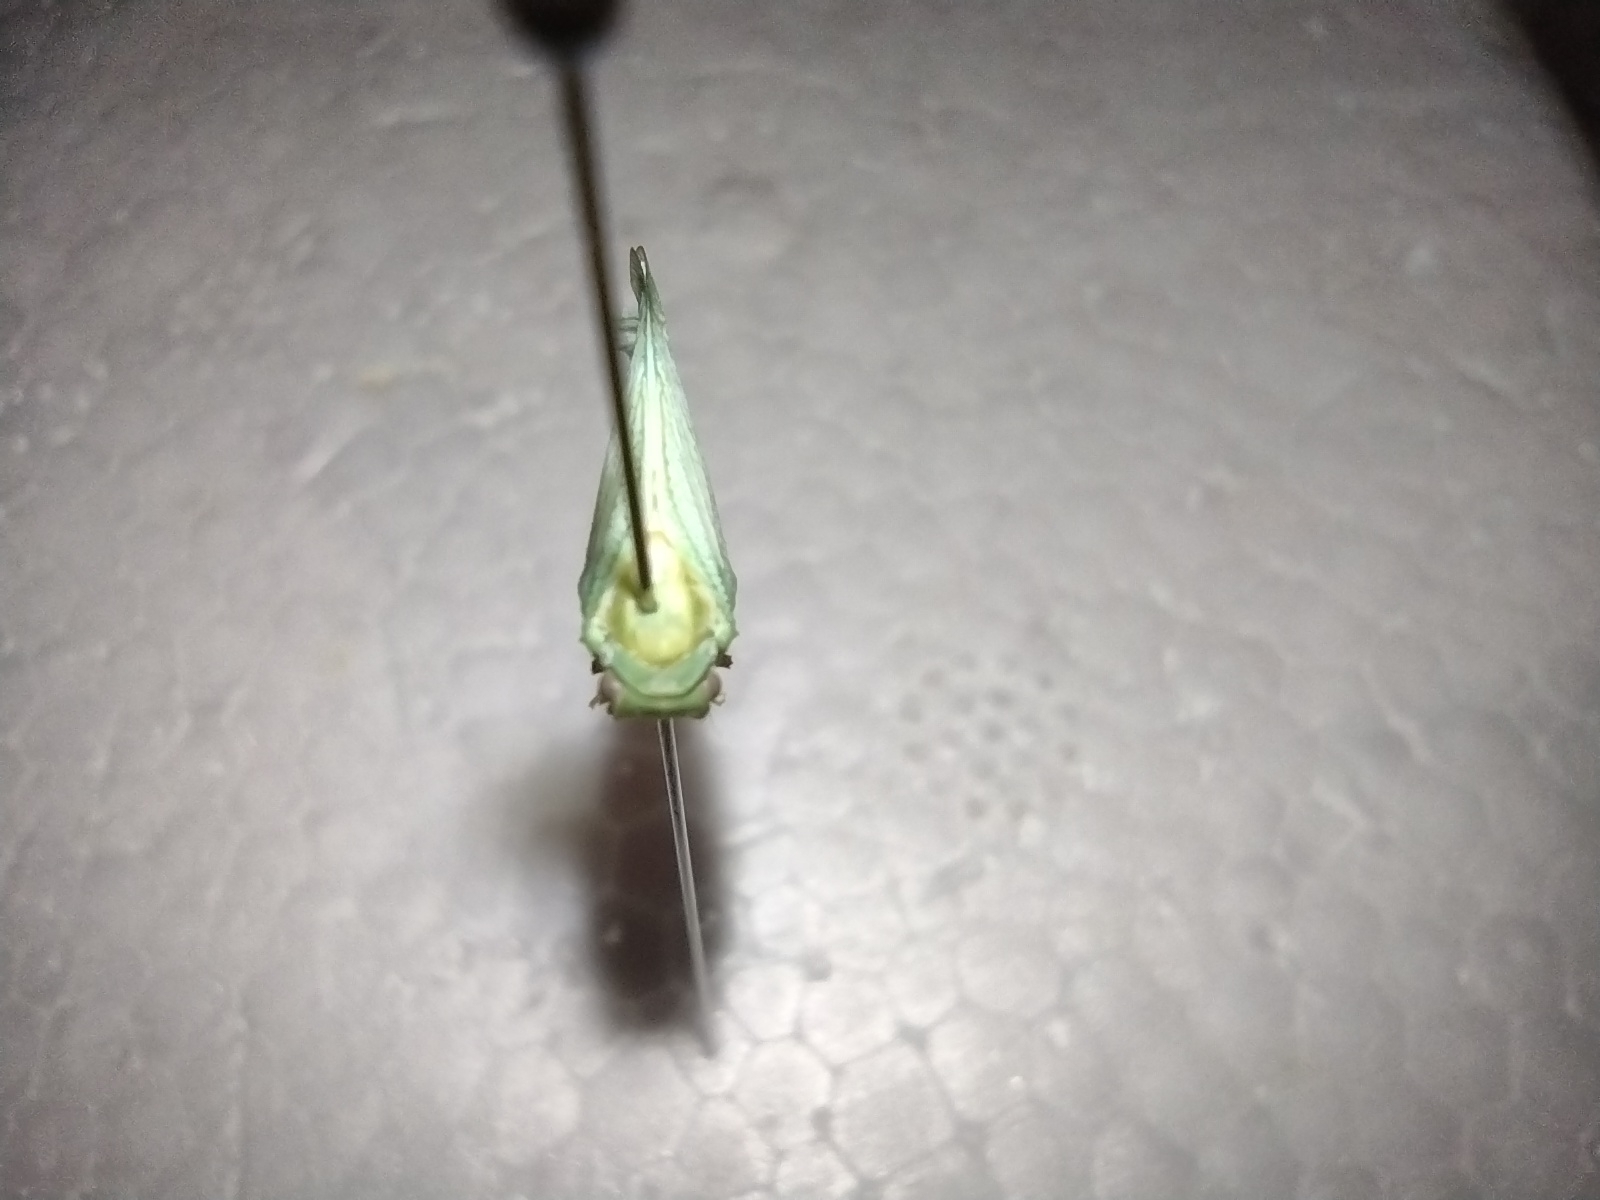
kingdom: Animalia
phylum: Arthropoda
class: Insecta
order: Hemiptera
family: Flatidae
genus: Flatormenis
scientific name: Flatormenis proxima
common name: Northern flatid planthopper
